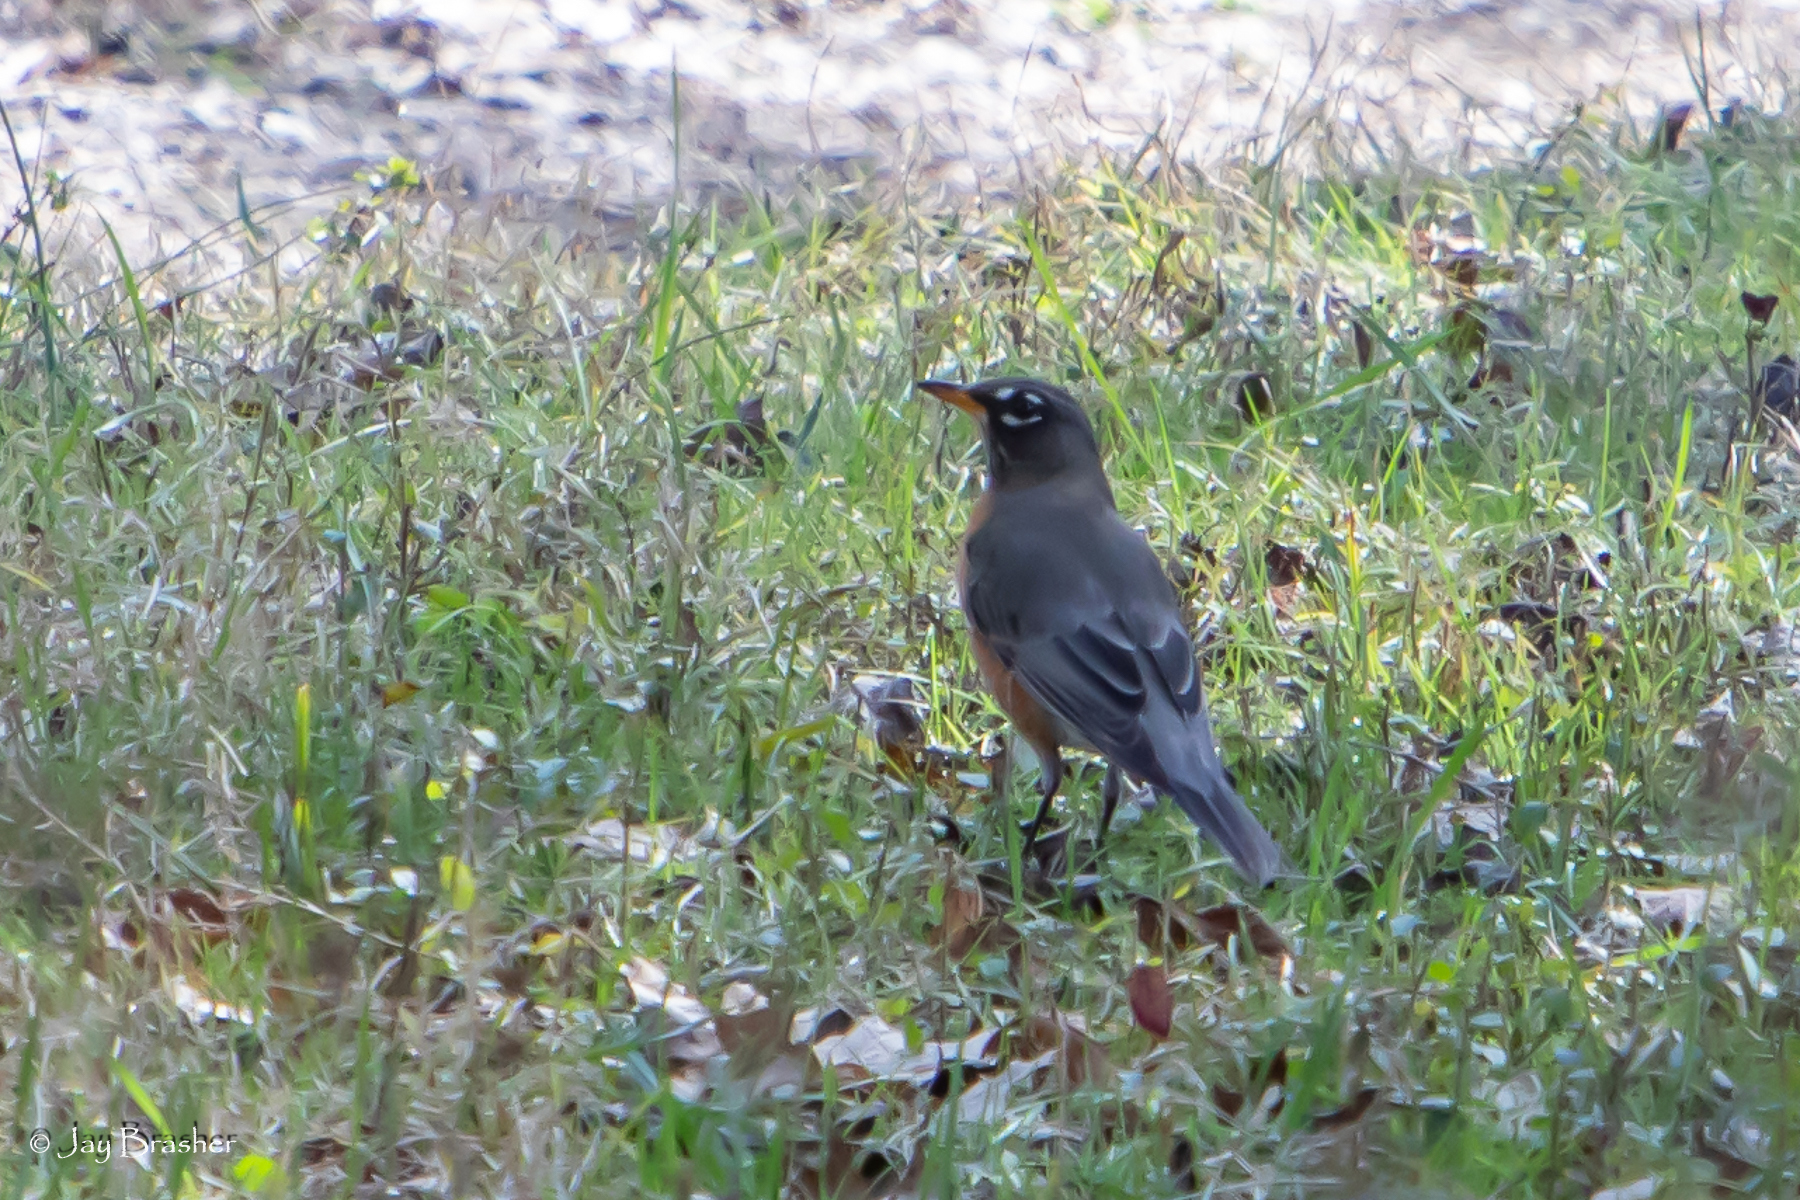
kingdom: Animalia
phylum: Chordata
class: Aves
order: Passeriformes
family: Turdidae
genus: Turdus
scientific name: Turdus migratorius
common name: American robin
